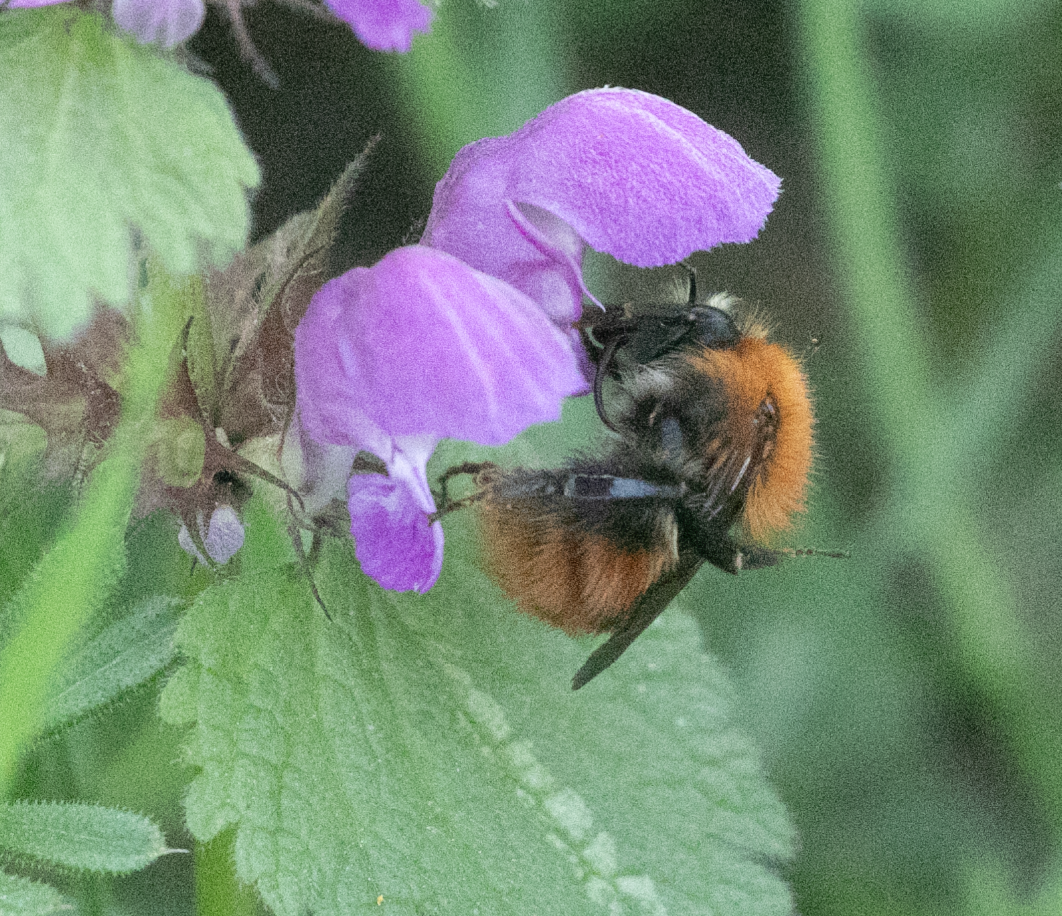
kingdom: Animalia
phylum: Arthropoda
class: Insecta
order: Hymenoptera
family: Apidae
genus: Bombus
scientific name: Bombus pascuorum
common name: Common carder bee
